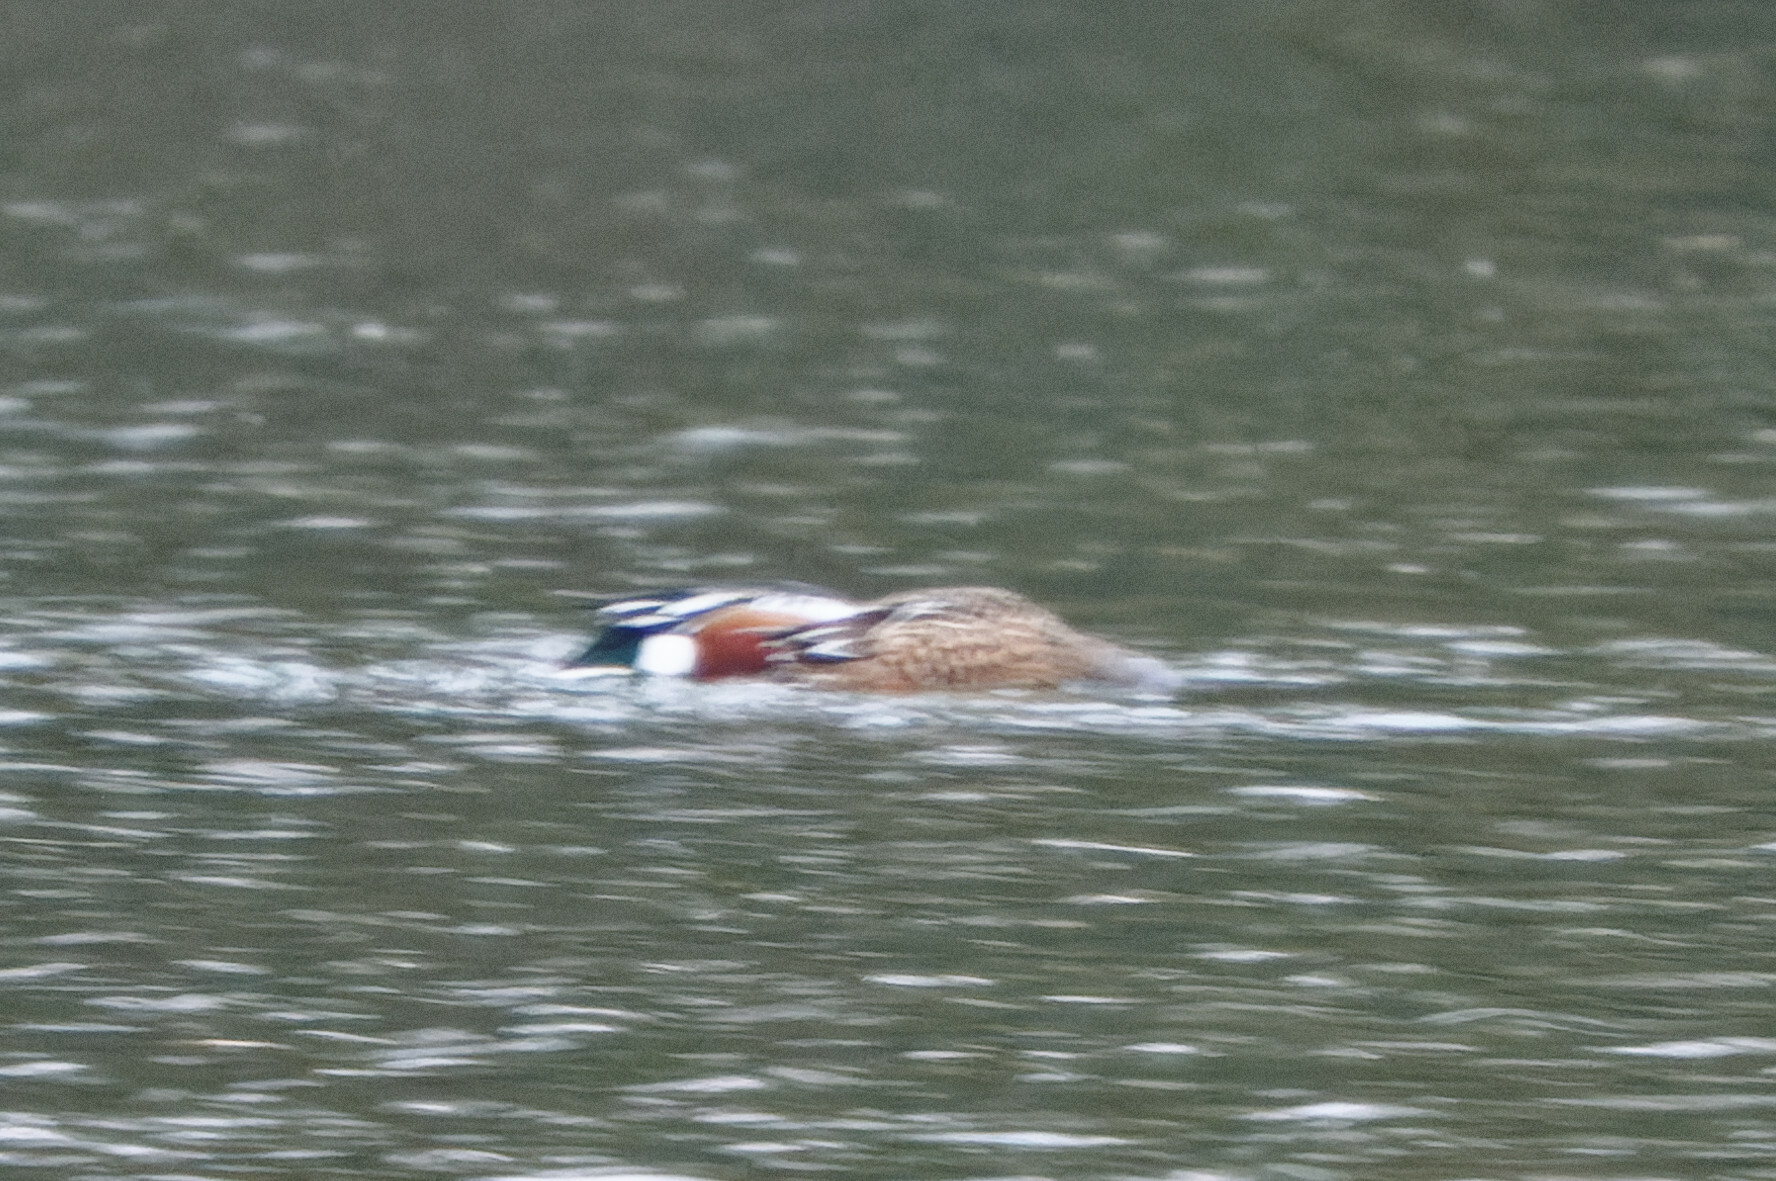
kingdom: Animalia
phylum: Chordata
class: Aves
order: Anseriformes
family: Anatidae
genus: Spatula
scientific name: Spatula clypeata
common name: Northern shoveler
